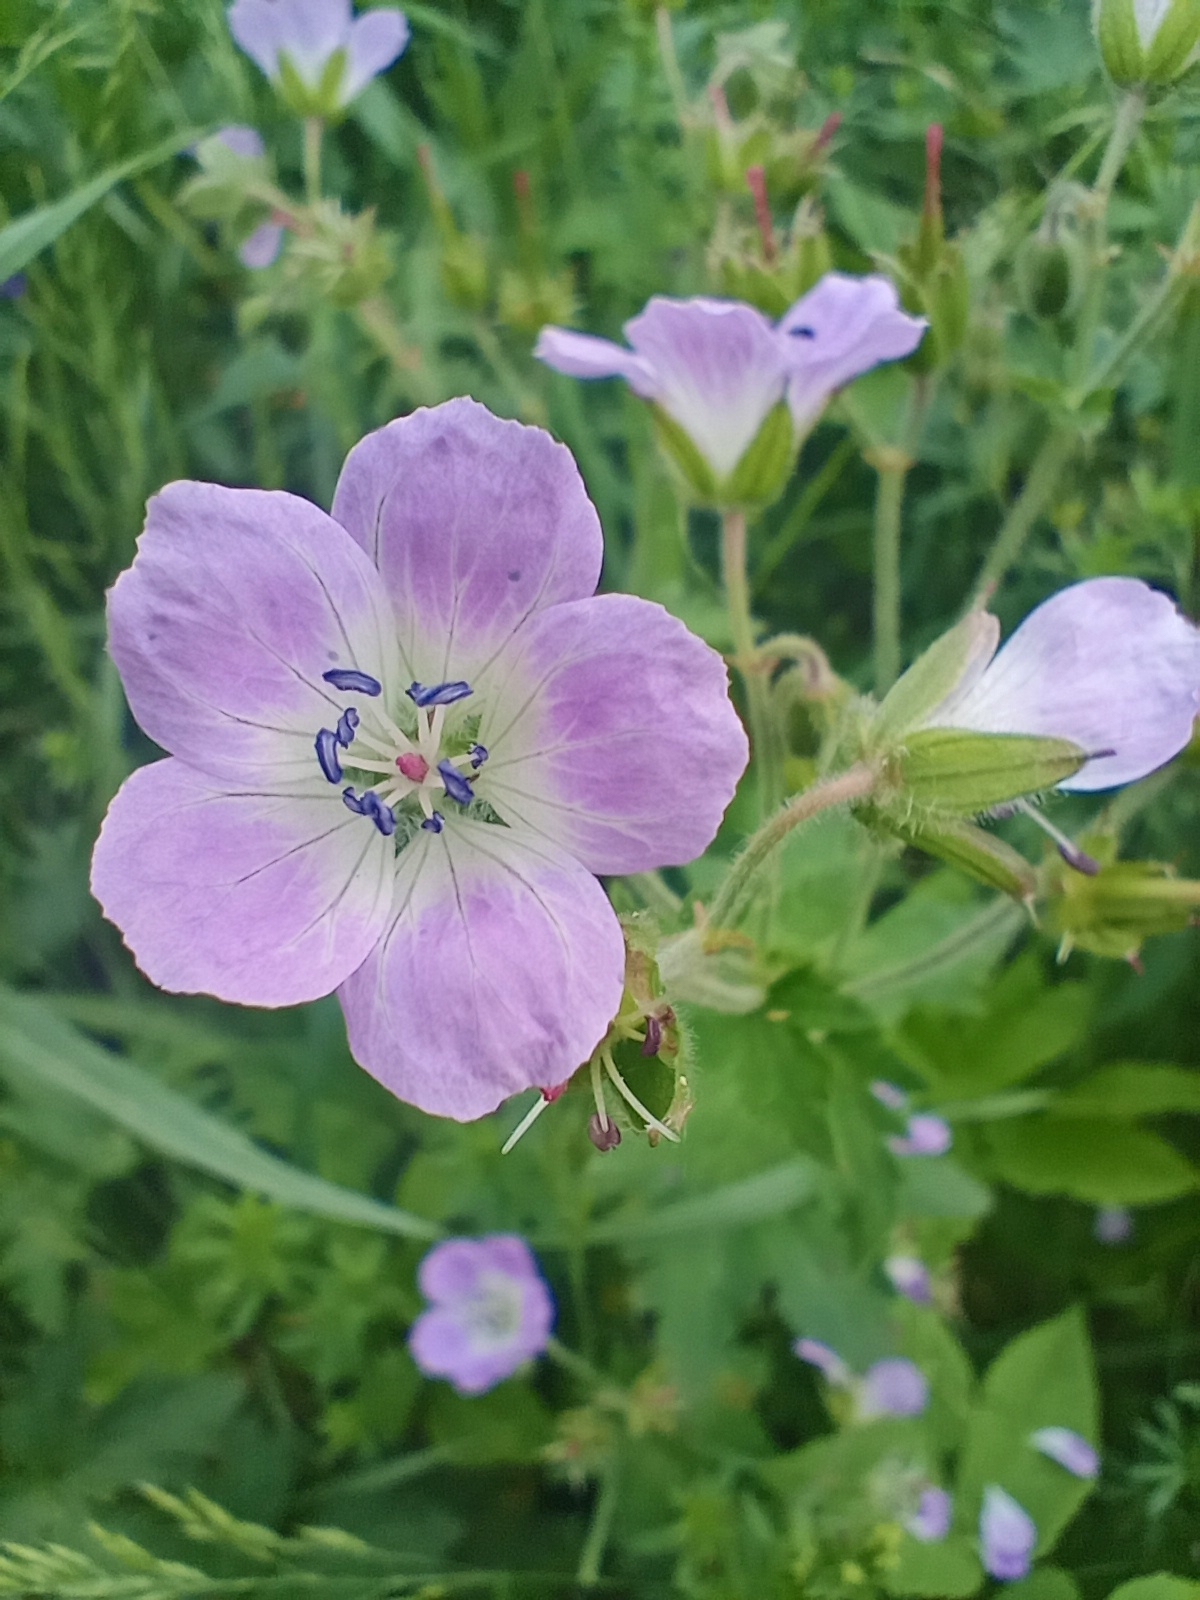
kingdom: Plantae
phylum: Tracheophyta
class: Magnoliopsida
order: Geraniales
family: Geraniaceae
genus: Geranium
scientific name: Geranium sylvaticum
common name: Wood crane's-bill
